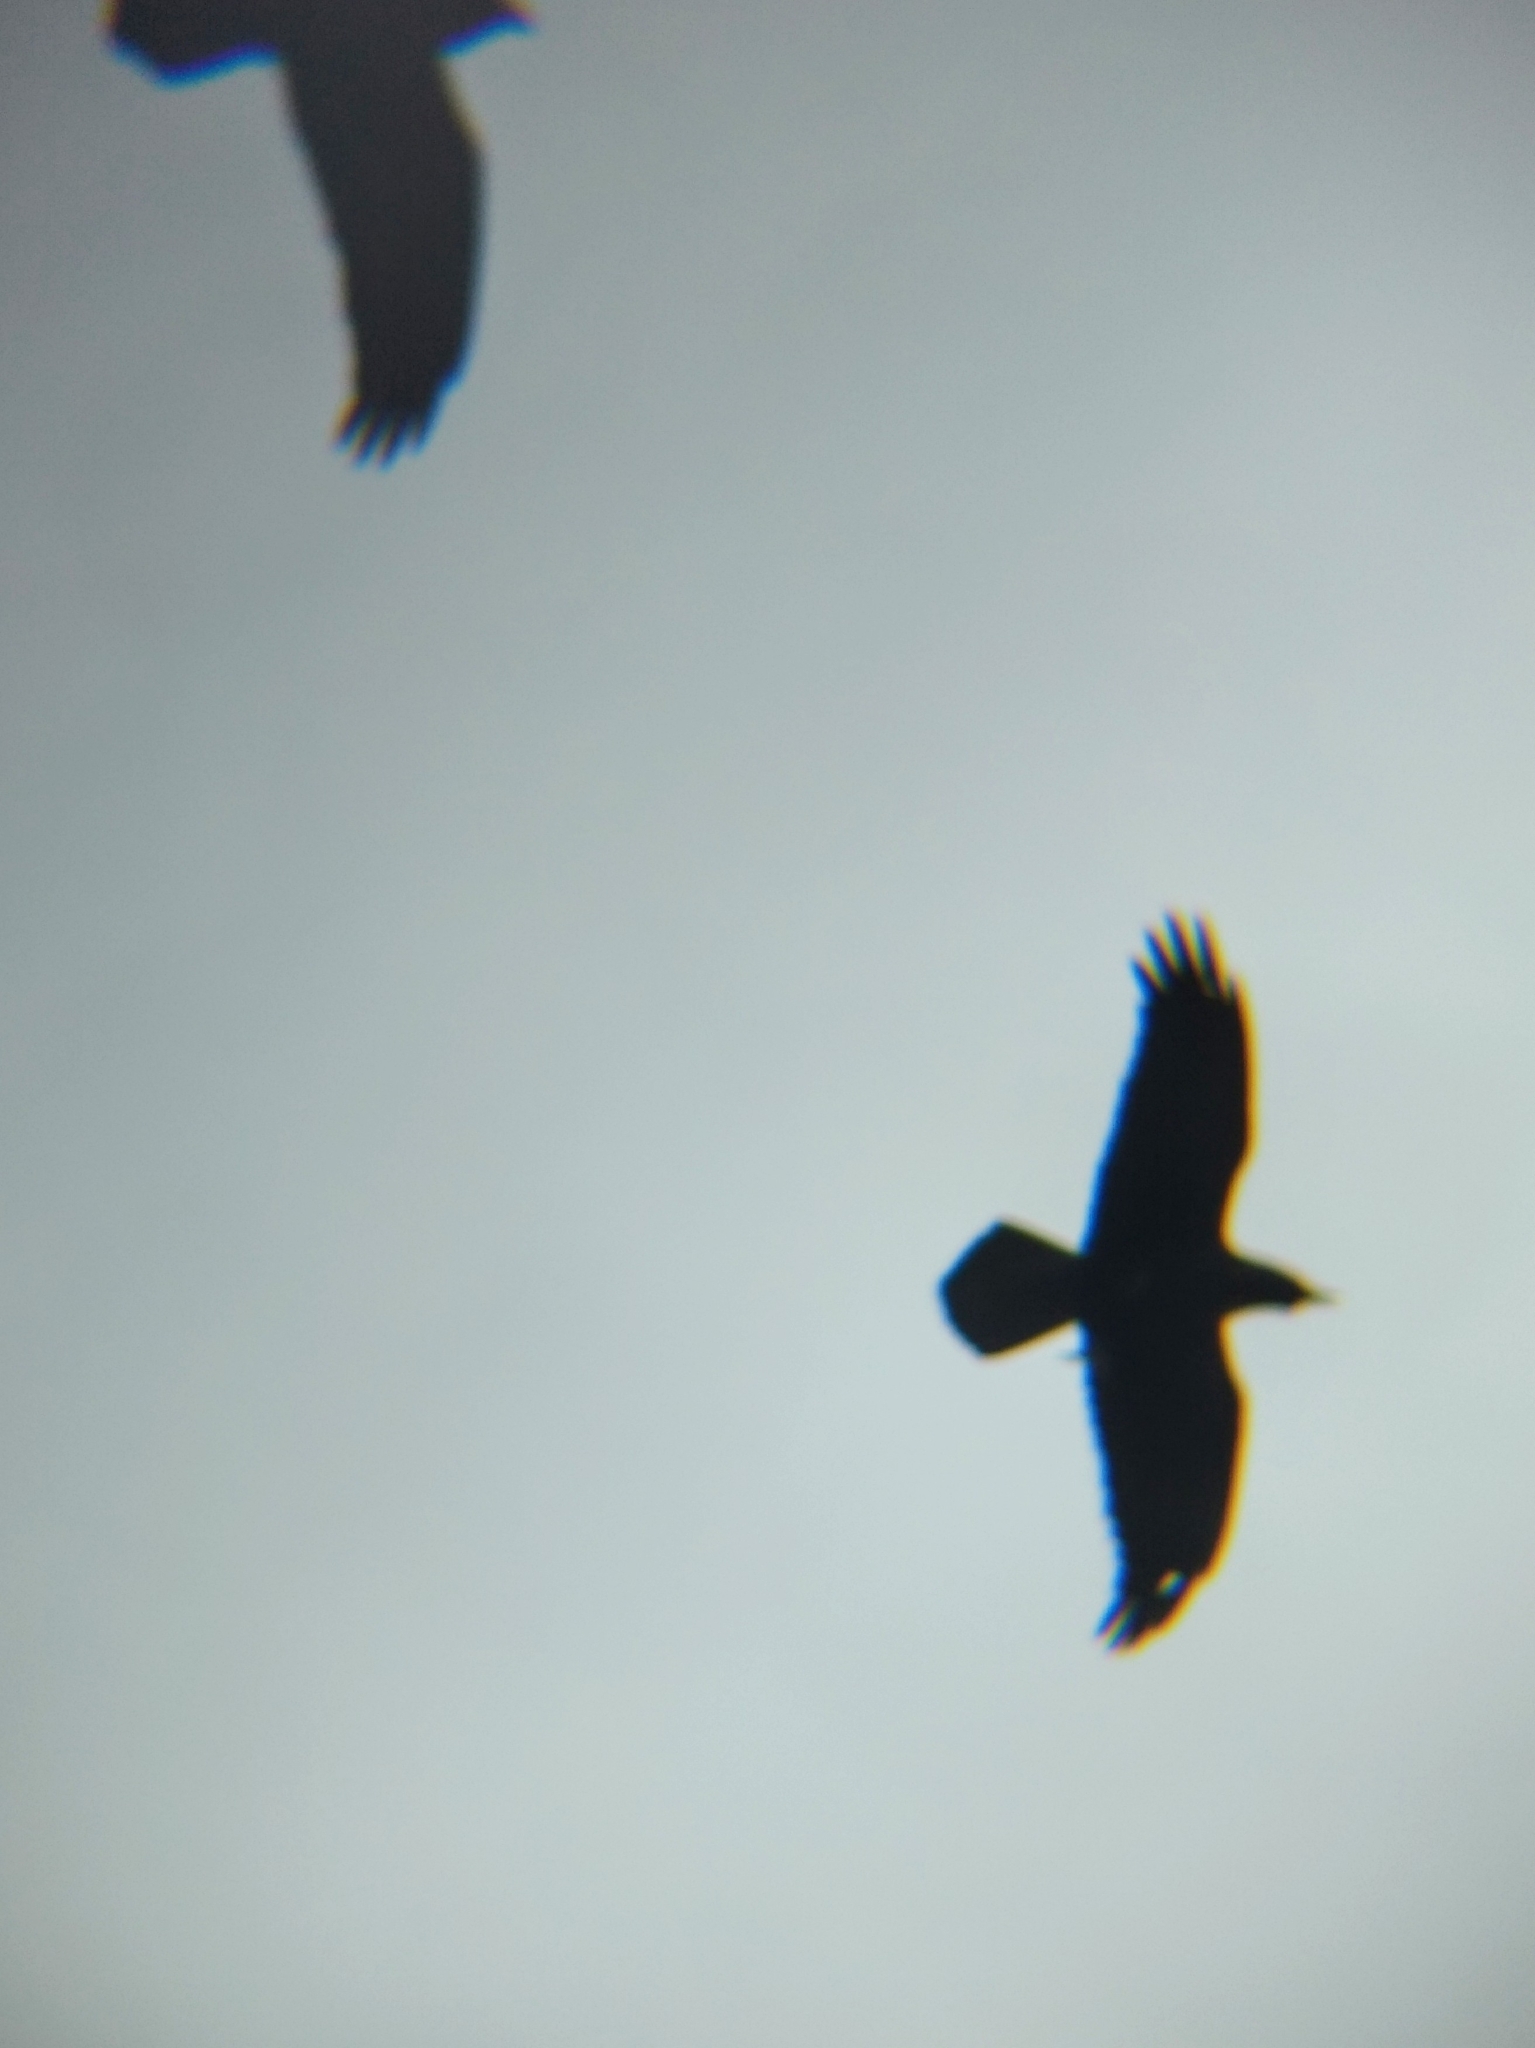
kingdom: Animalia
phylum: Chordata
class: Aves
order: Passeriformes
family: Corvidae
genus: Corvus
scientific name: Corvus corax
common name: Common raven
